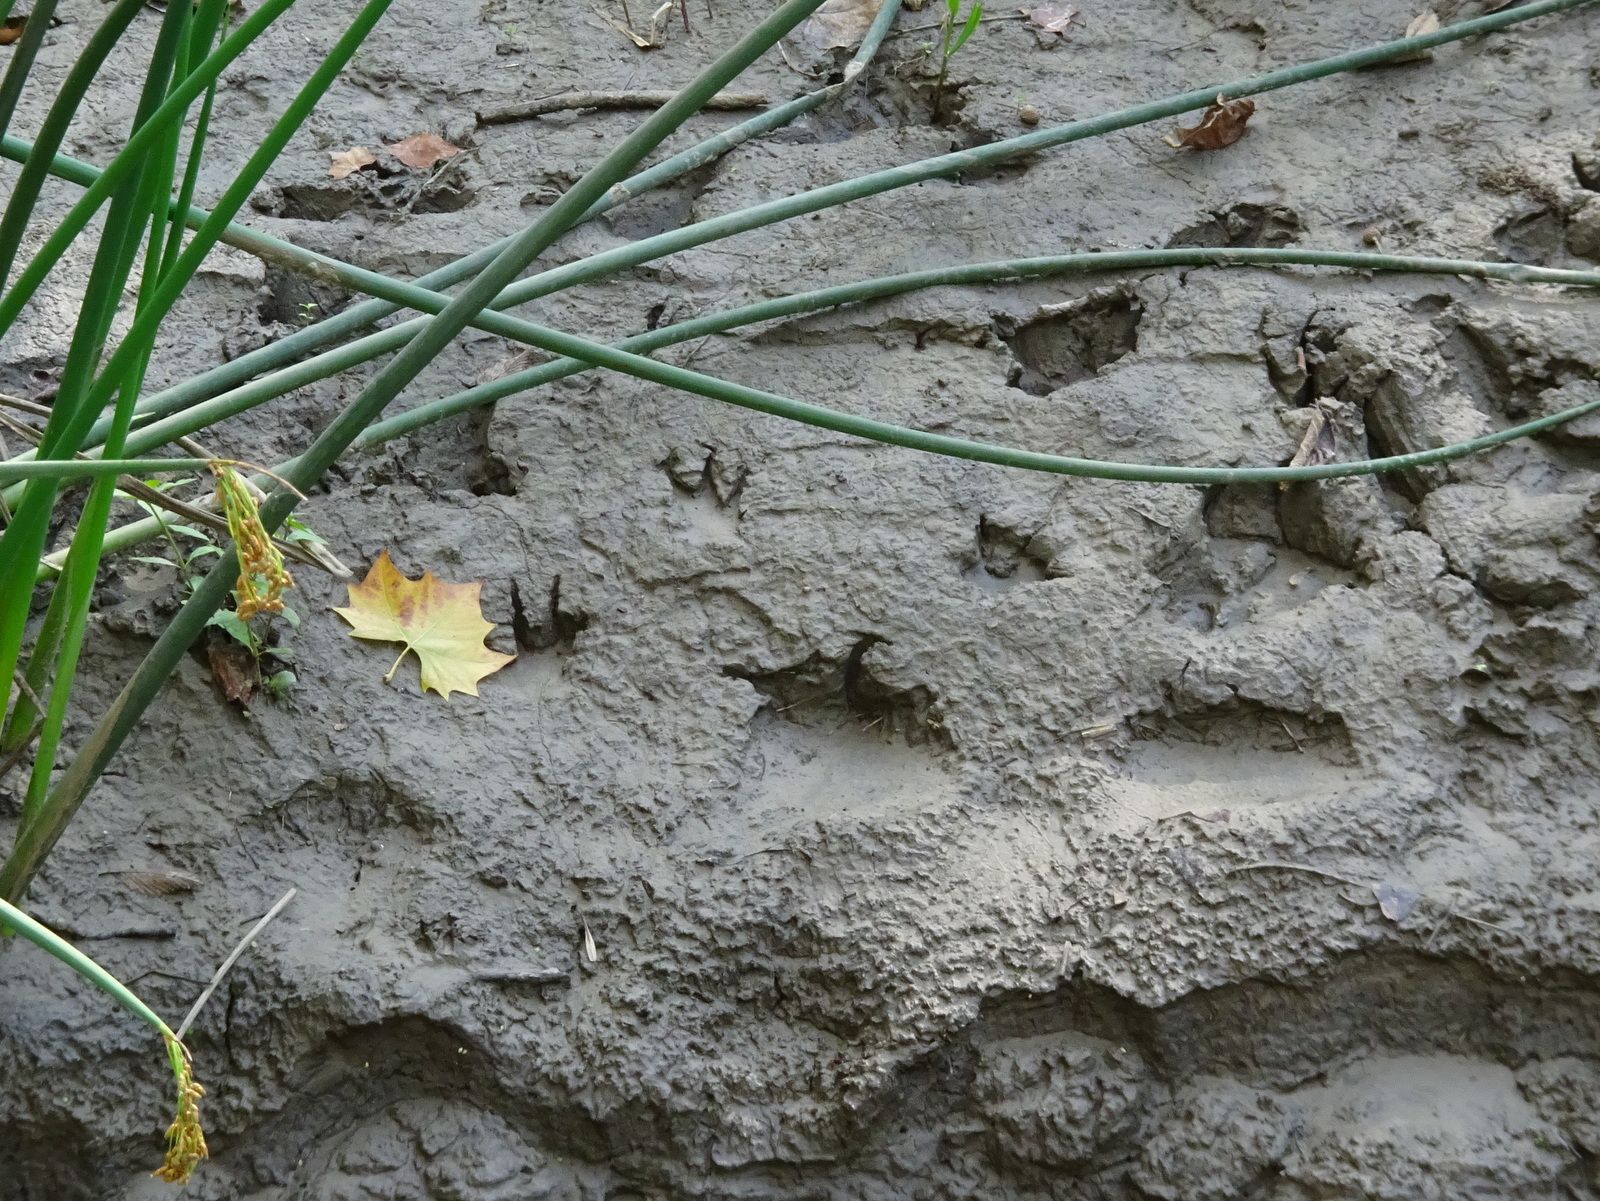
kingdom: Animalia
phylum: Chordata
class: Mammalia
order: Rodentia
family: Castoridae
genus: Castor
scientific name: Castor canadensis
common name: American beaver
